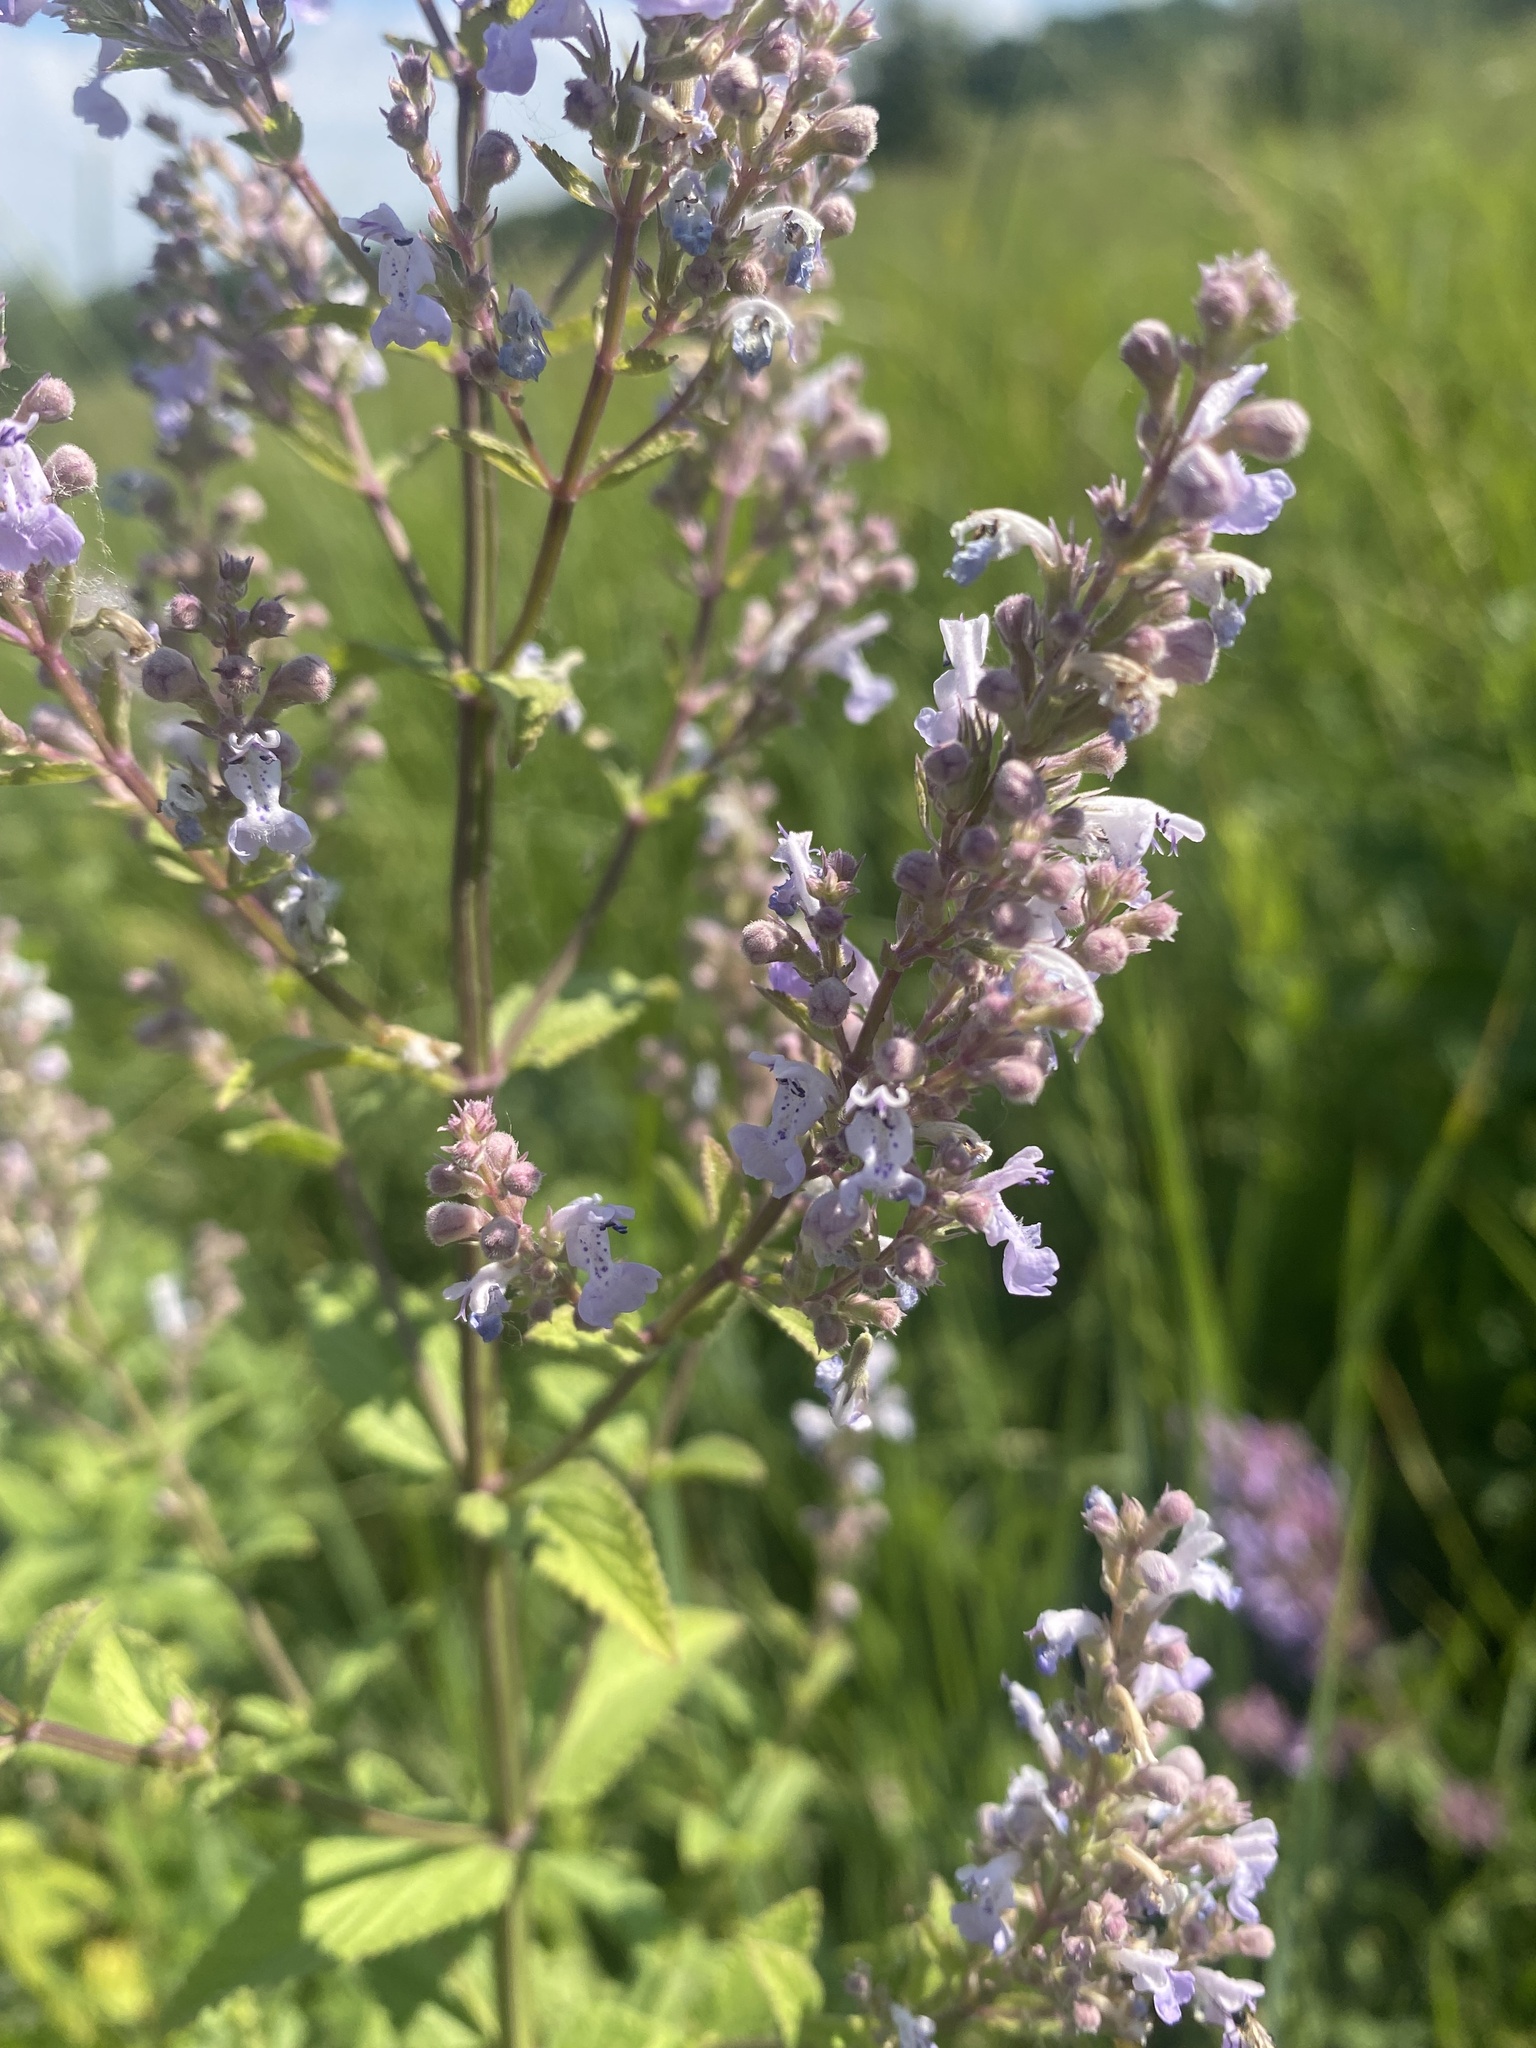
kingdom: Plantae
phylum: Tracheophyta
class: Magnoliopsida
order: Lamiales
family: Lamiaceae
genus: Nepeta
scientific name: Nepeta nuda
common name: Hairless catmint
